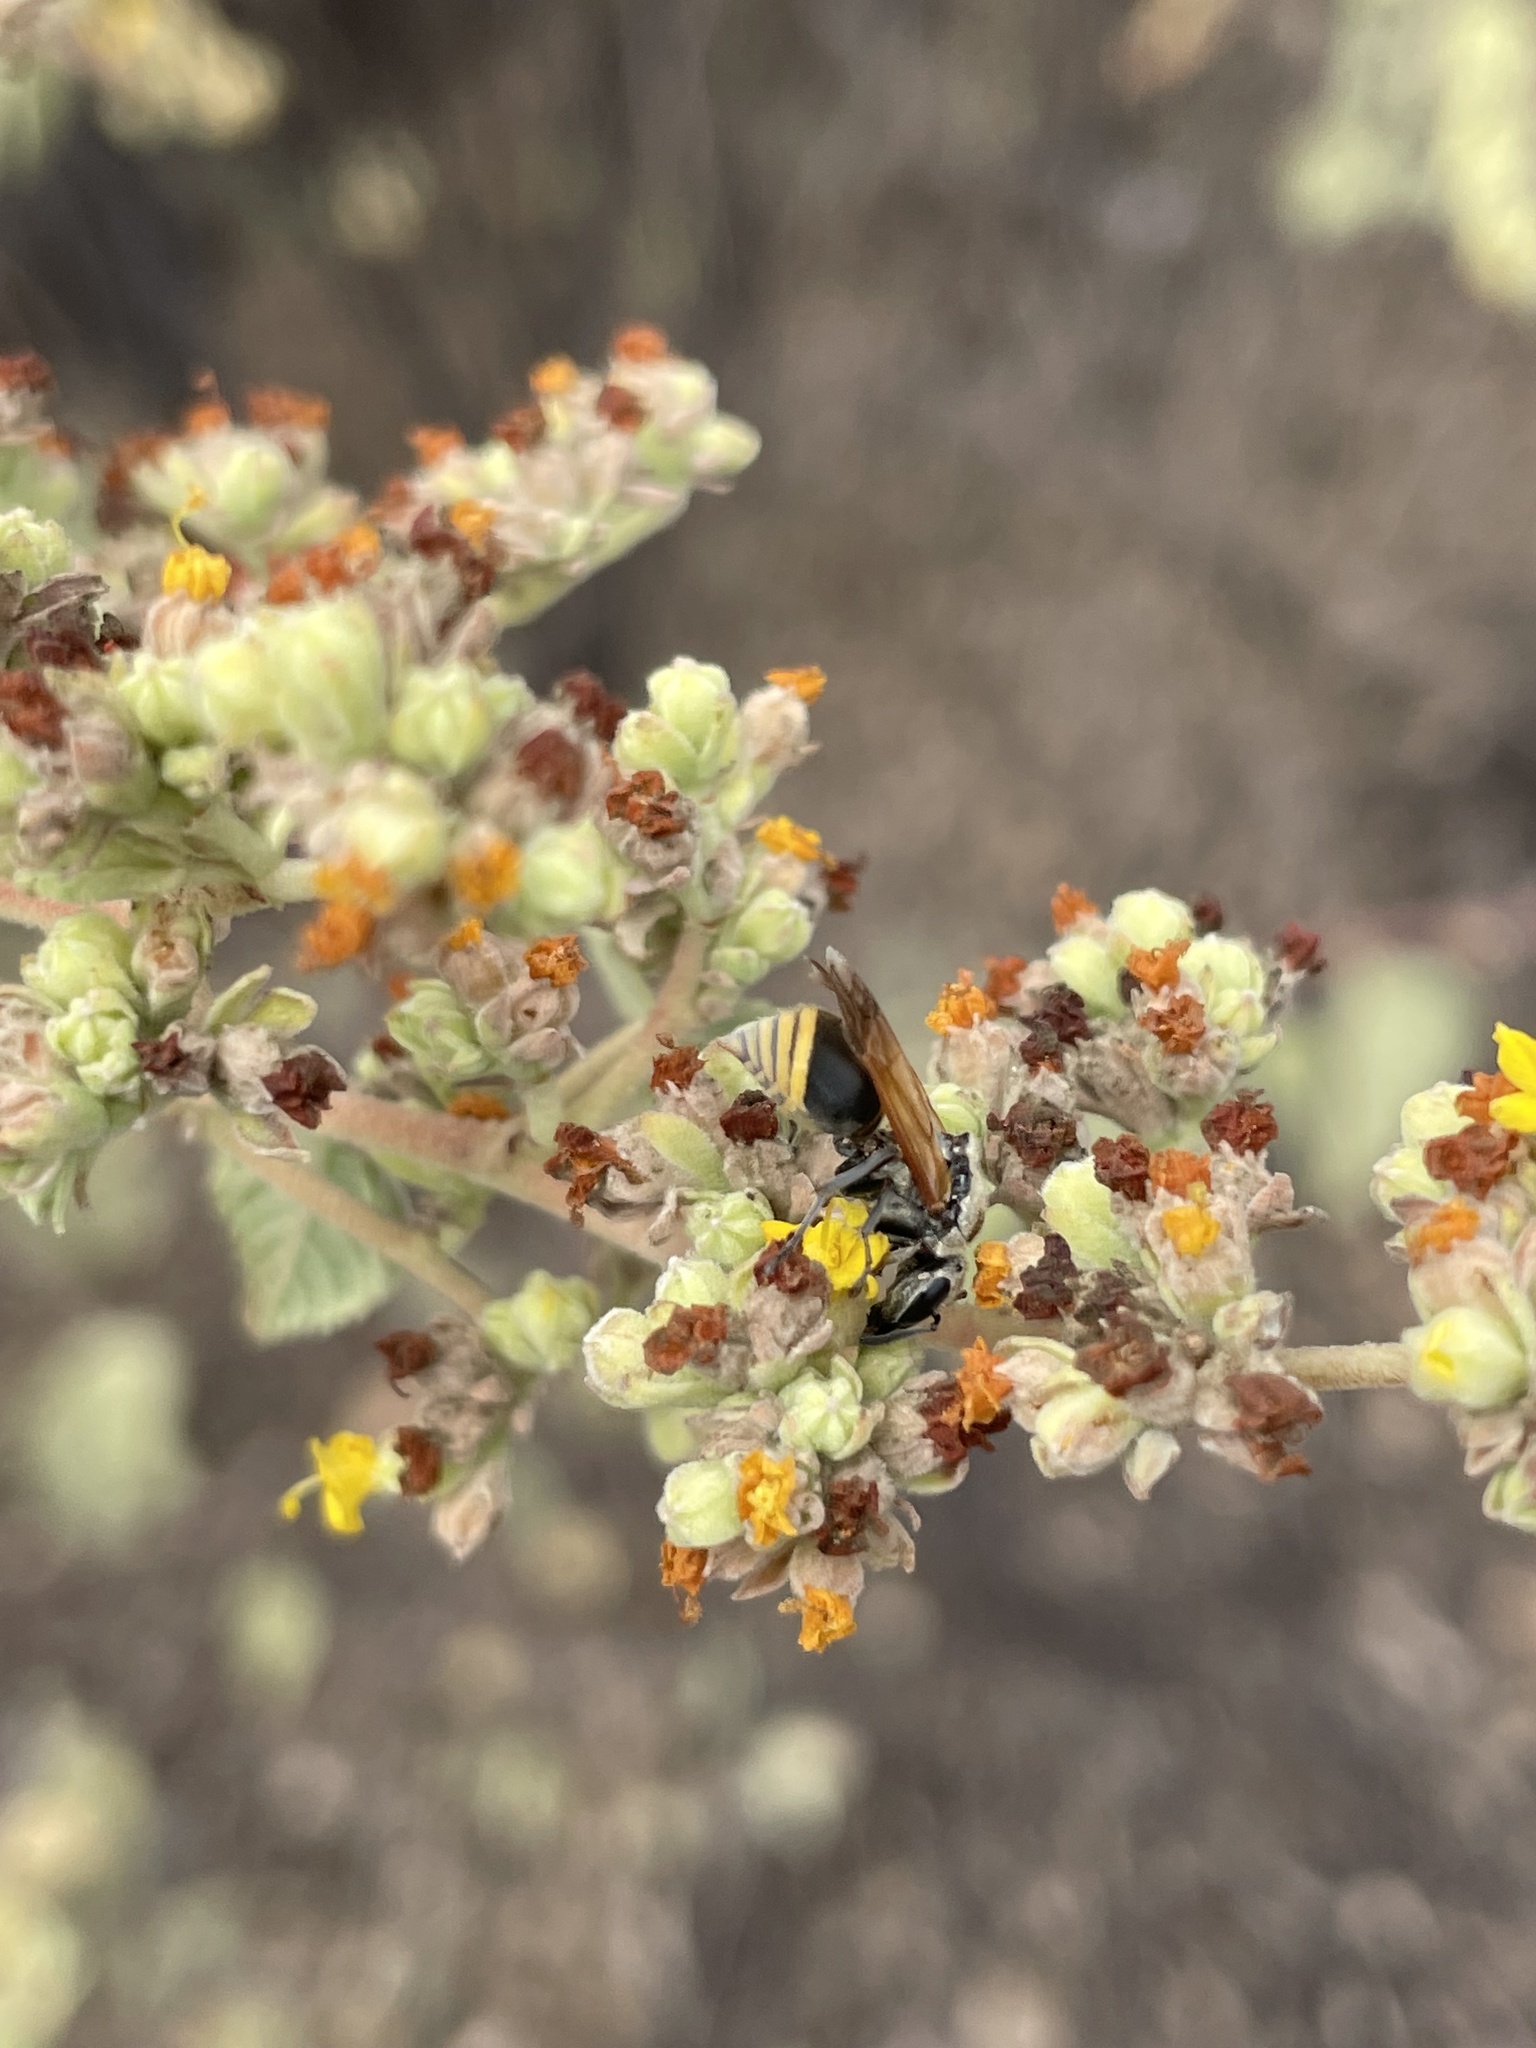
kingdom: Animalia
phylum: Arthropoda
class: Insecta
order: Hymenoptera
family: Vespidae
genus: Brachygastra
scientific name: Brachygastra lecheguana
